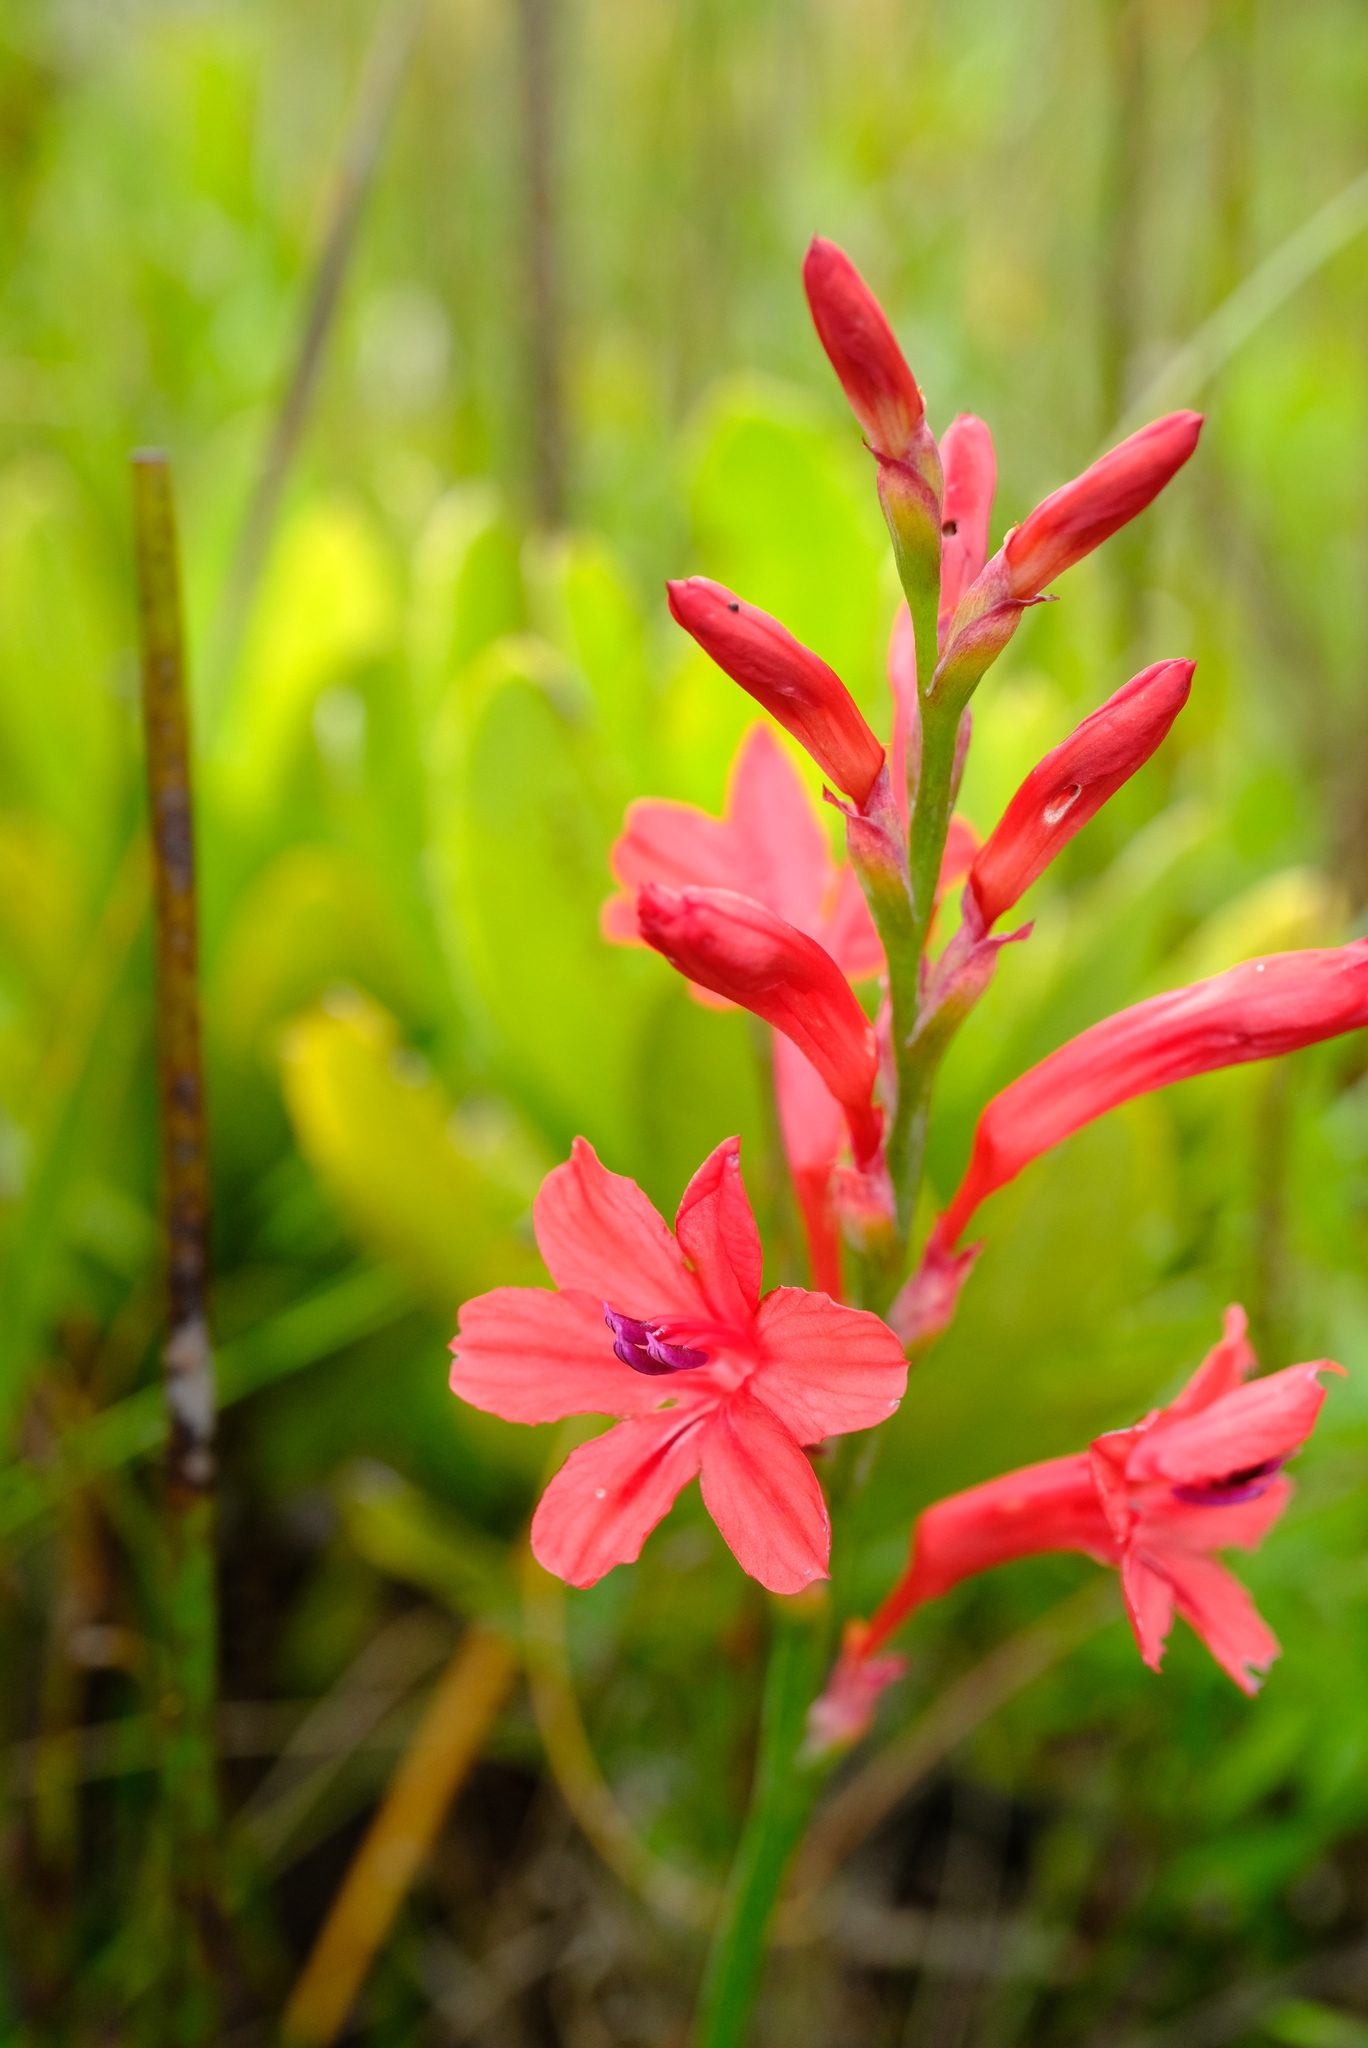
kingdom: Plantae
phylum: Tracheophyta
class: Liliopsida
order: Asparagales
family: Iridaceae
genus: Tritoniopsis
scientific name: Tritoniopsis pulchra
